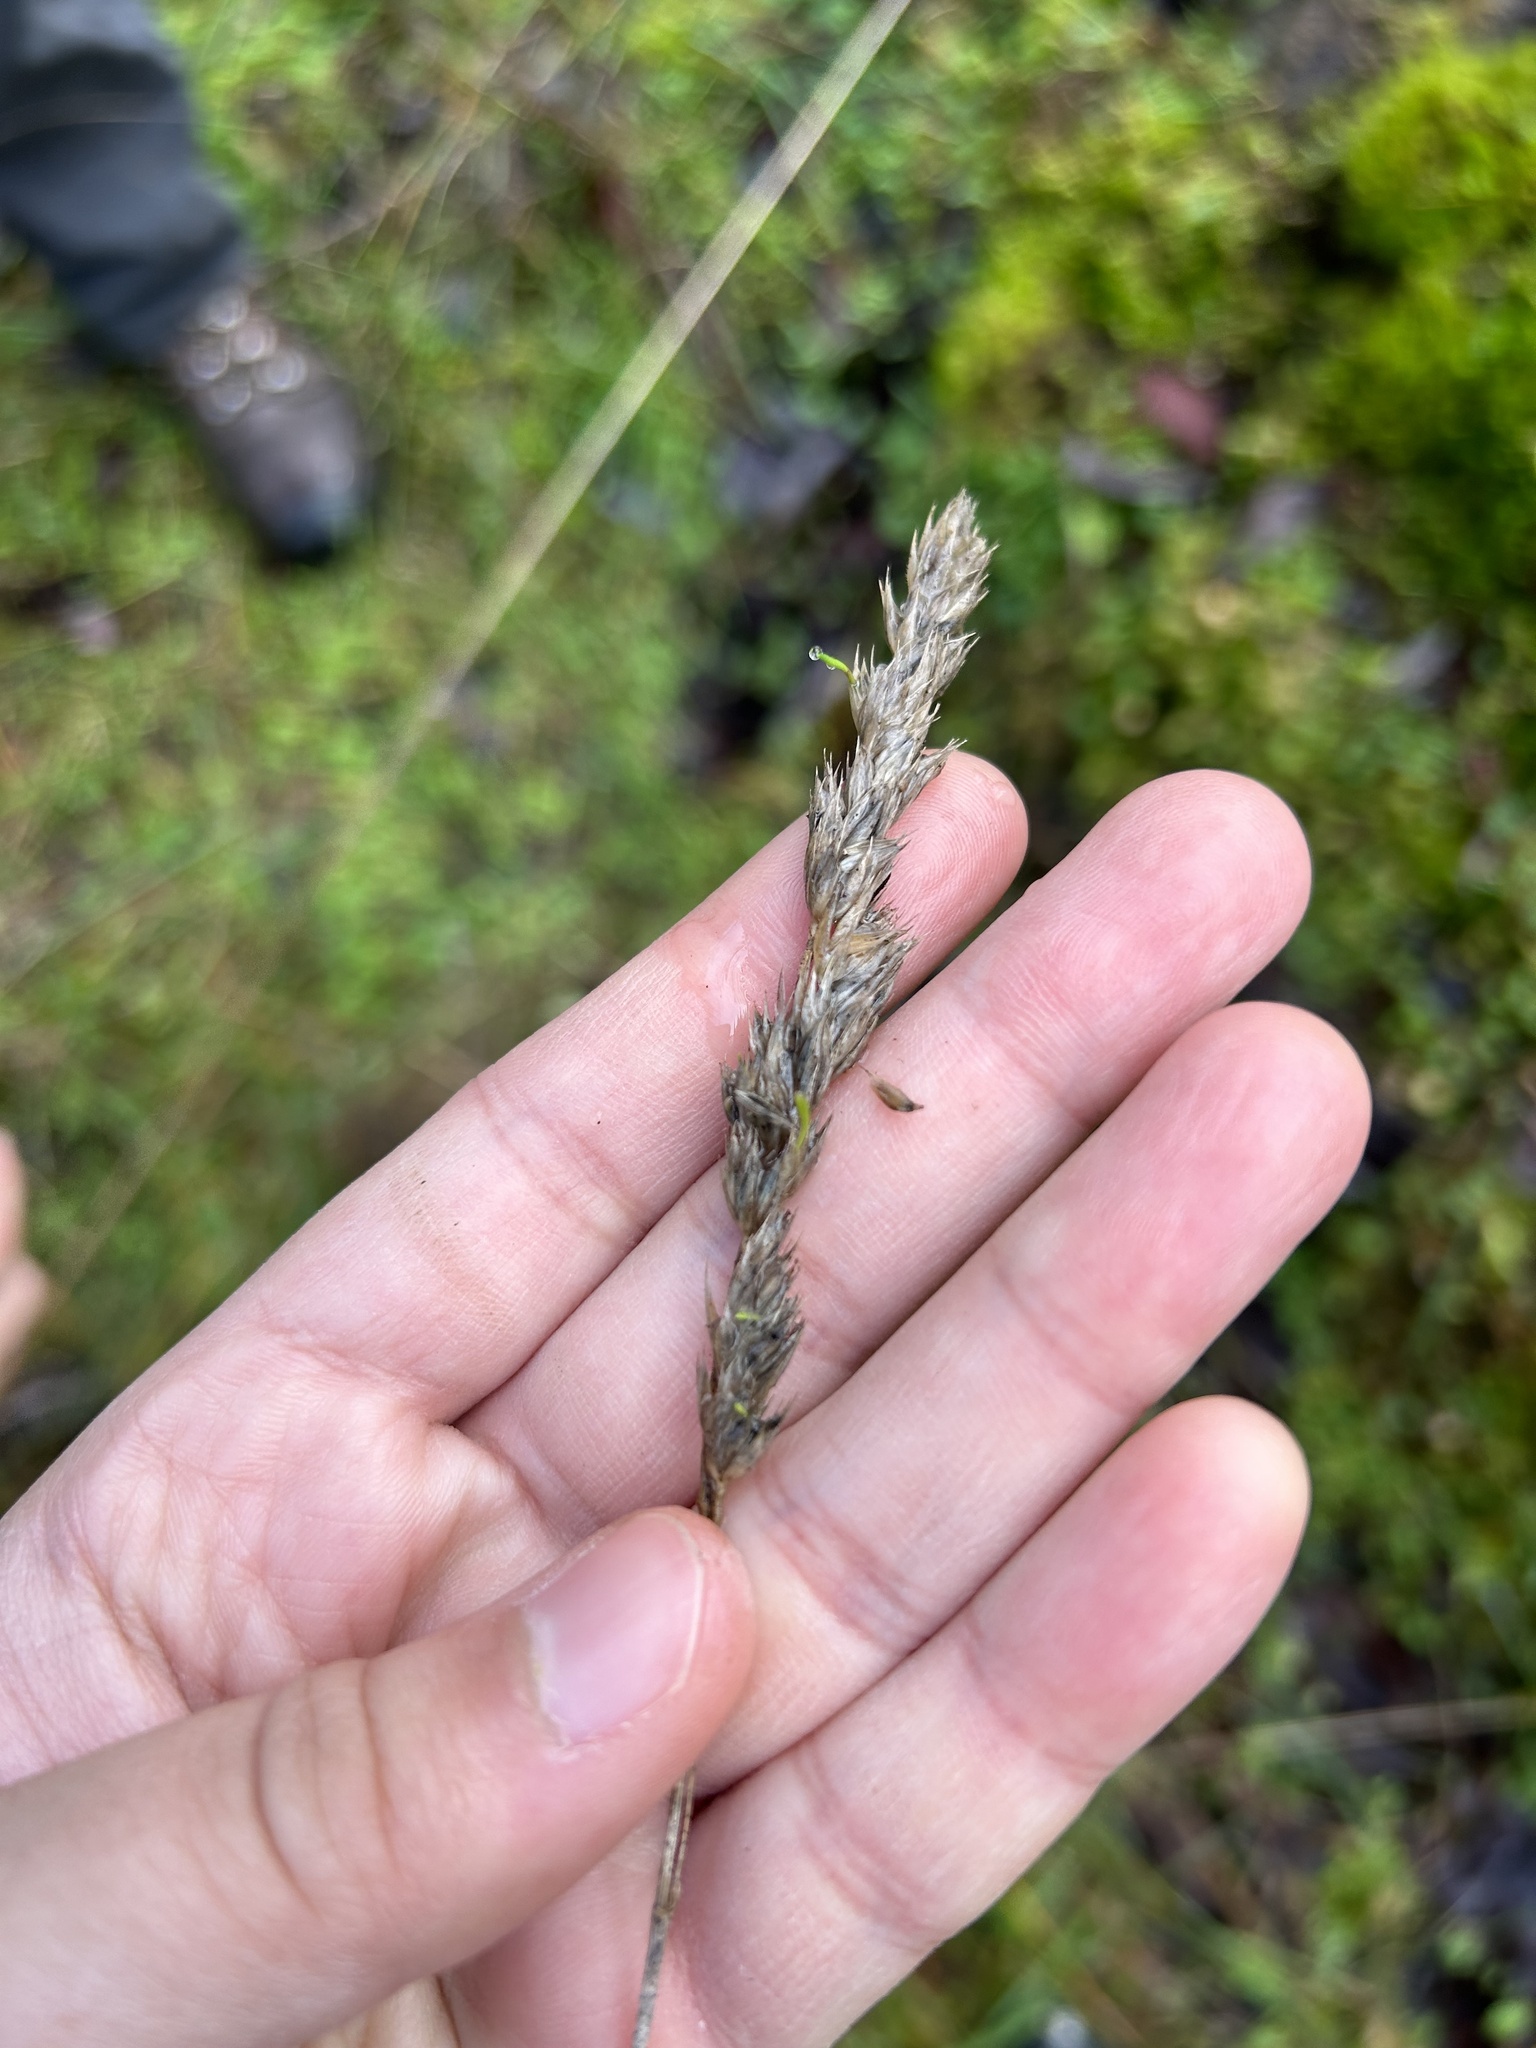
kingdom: Plantae
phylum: Tracheophyta
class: Liliopsida
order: Poales
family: Poaceae
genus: Dactylis
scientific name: Dactylis glomerata
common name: Orchardgrass
